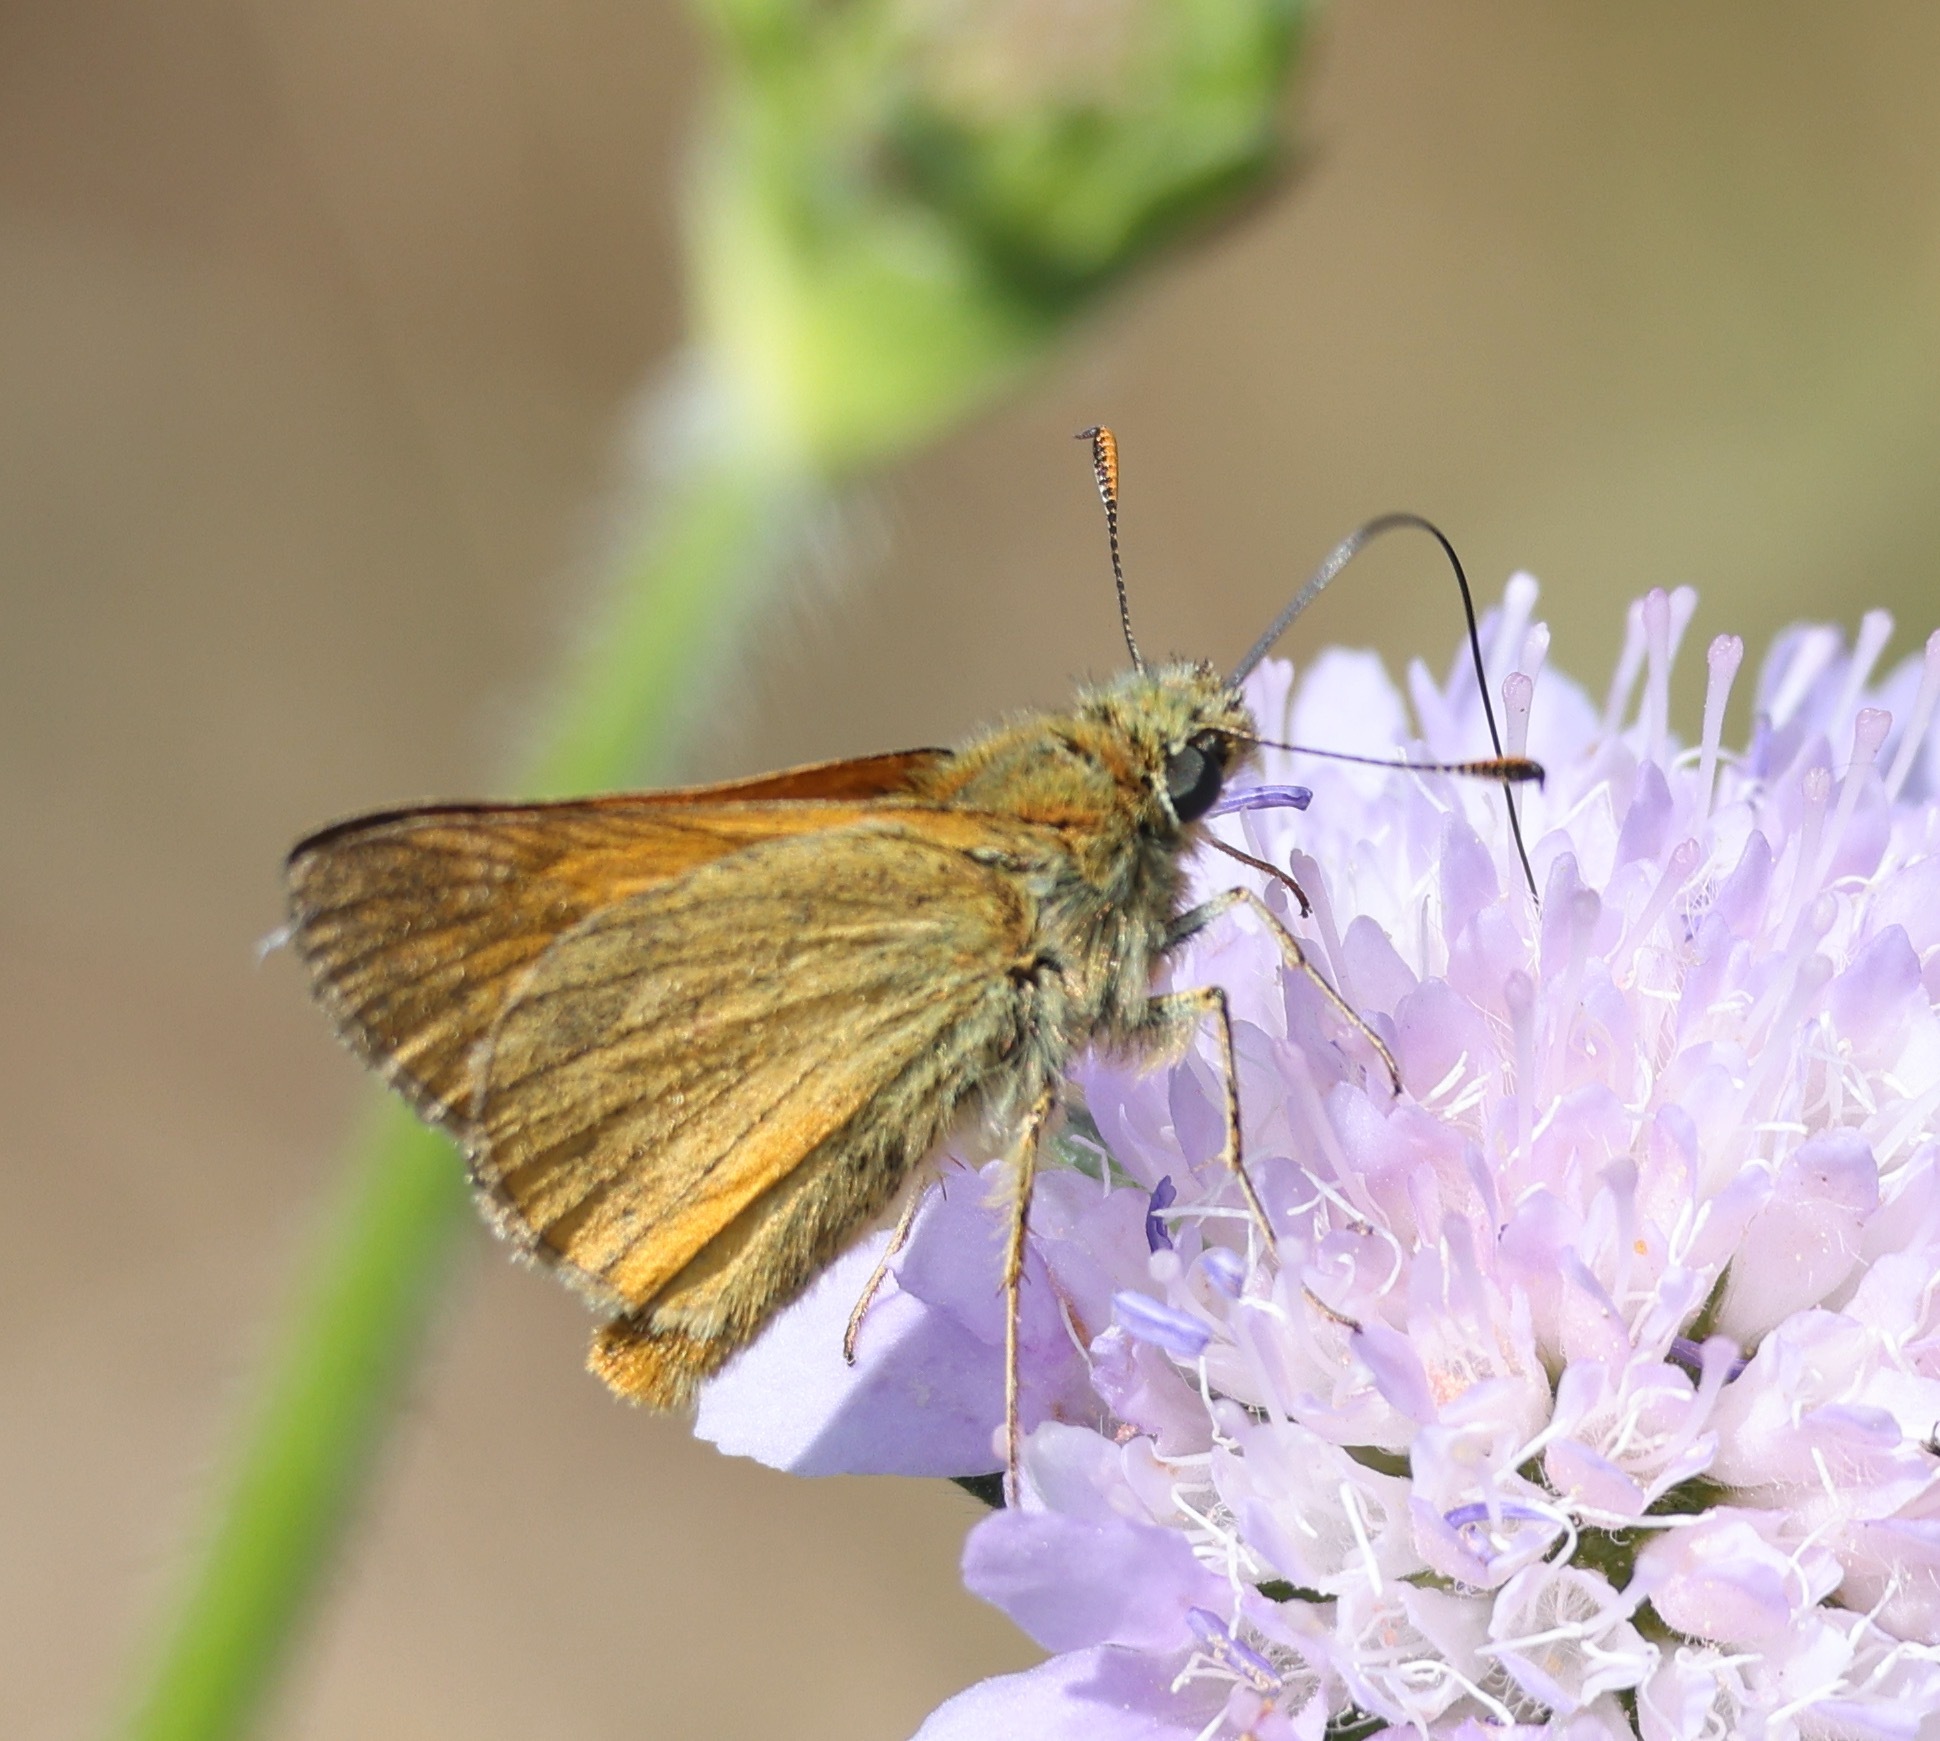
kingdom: Animalia
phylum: Arthropoda
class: Insecta
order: Lepidoptera
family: Hesperiidae
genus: Ochlodes
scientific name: Ochlodes venata
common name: Large skipper
